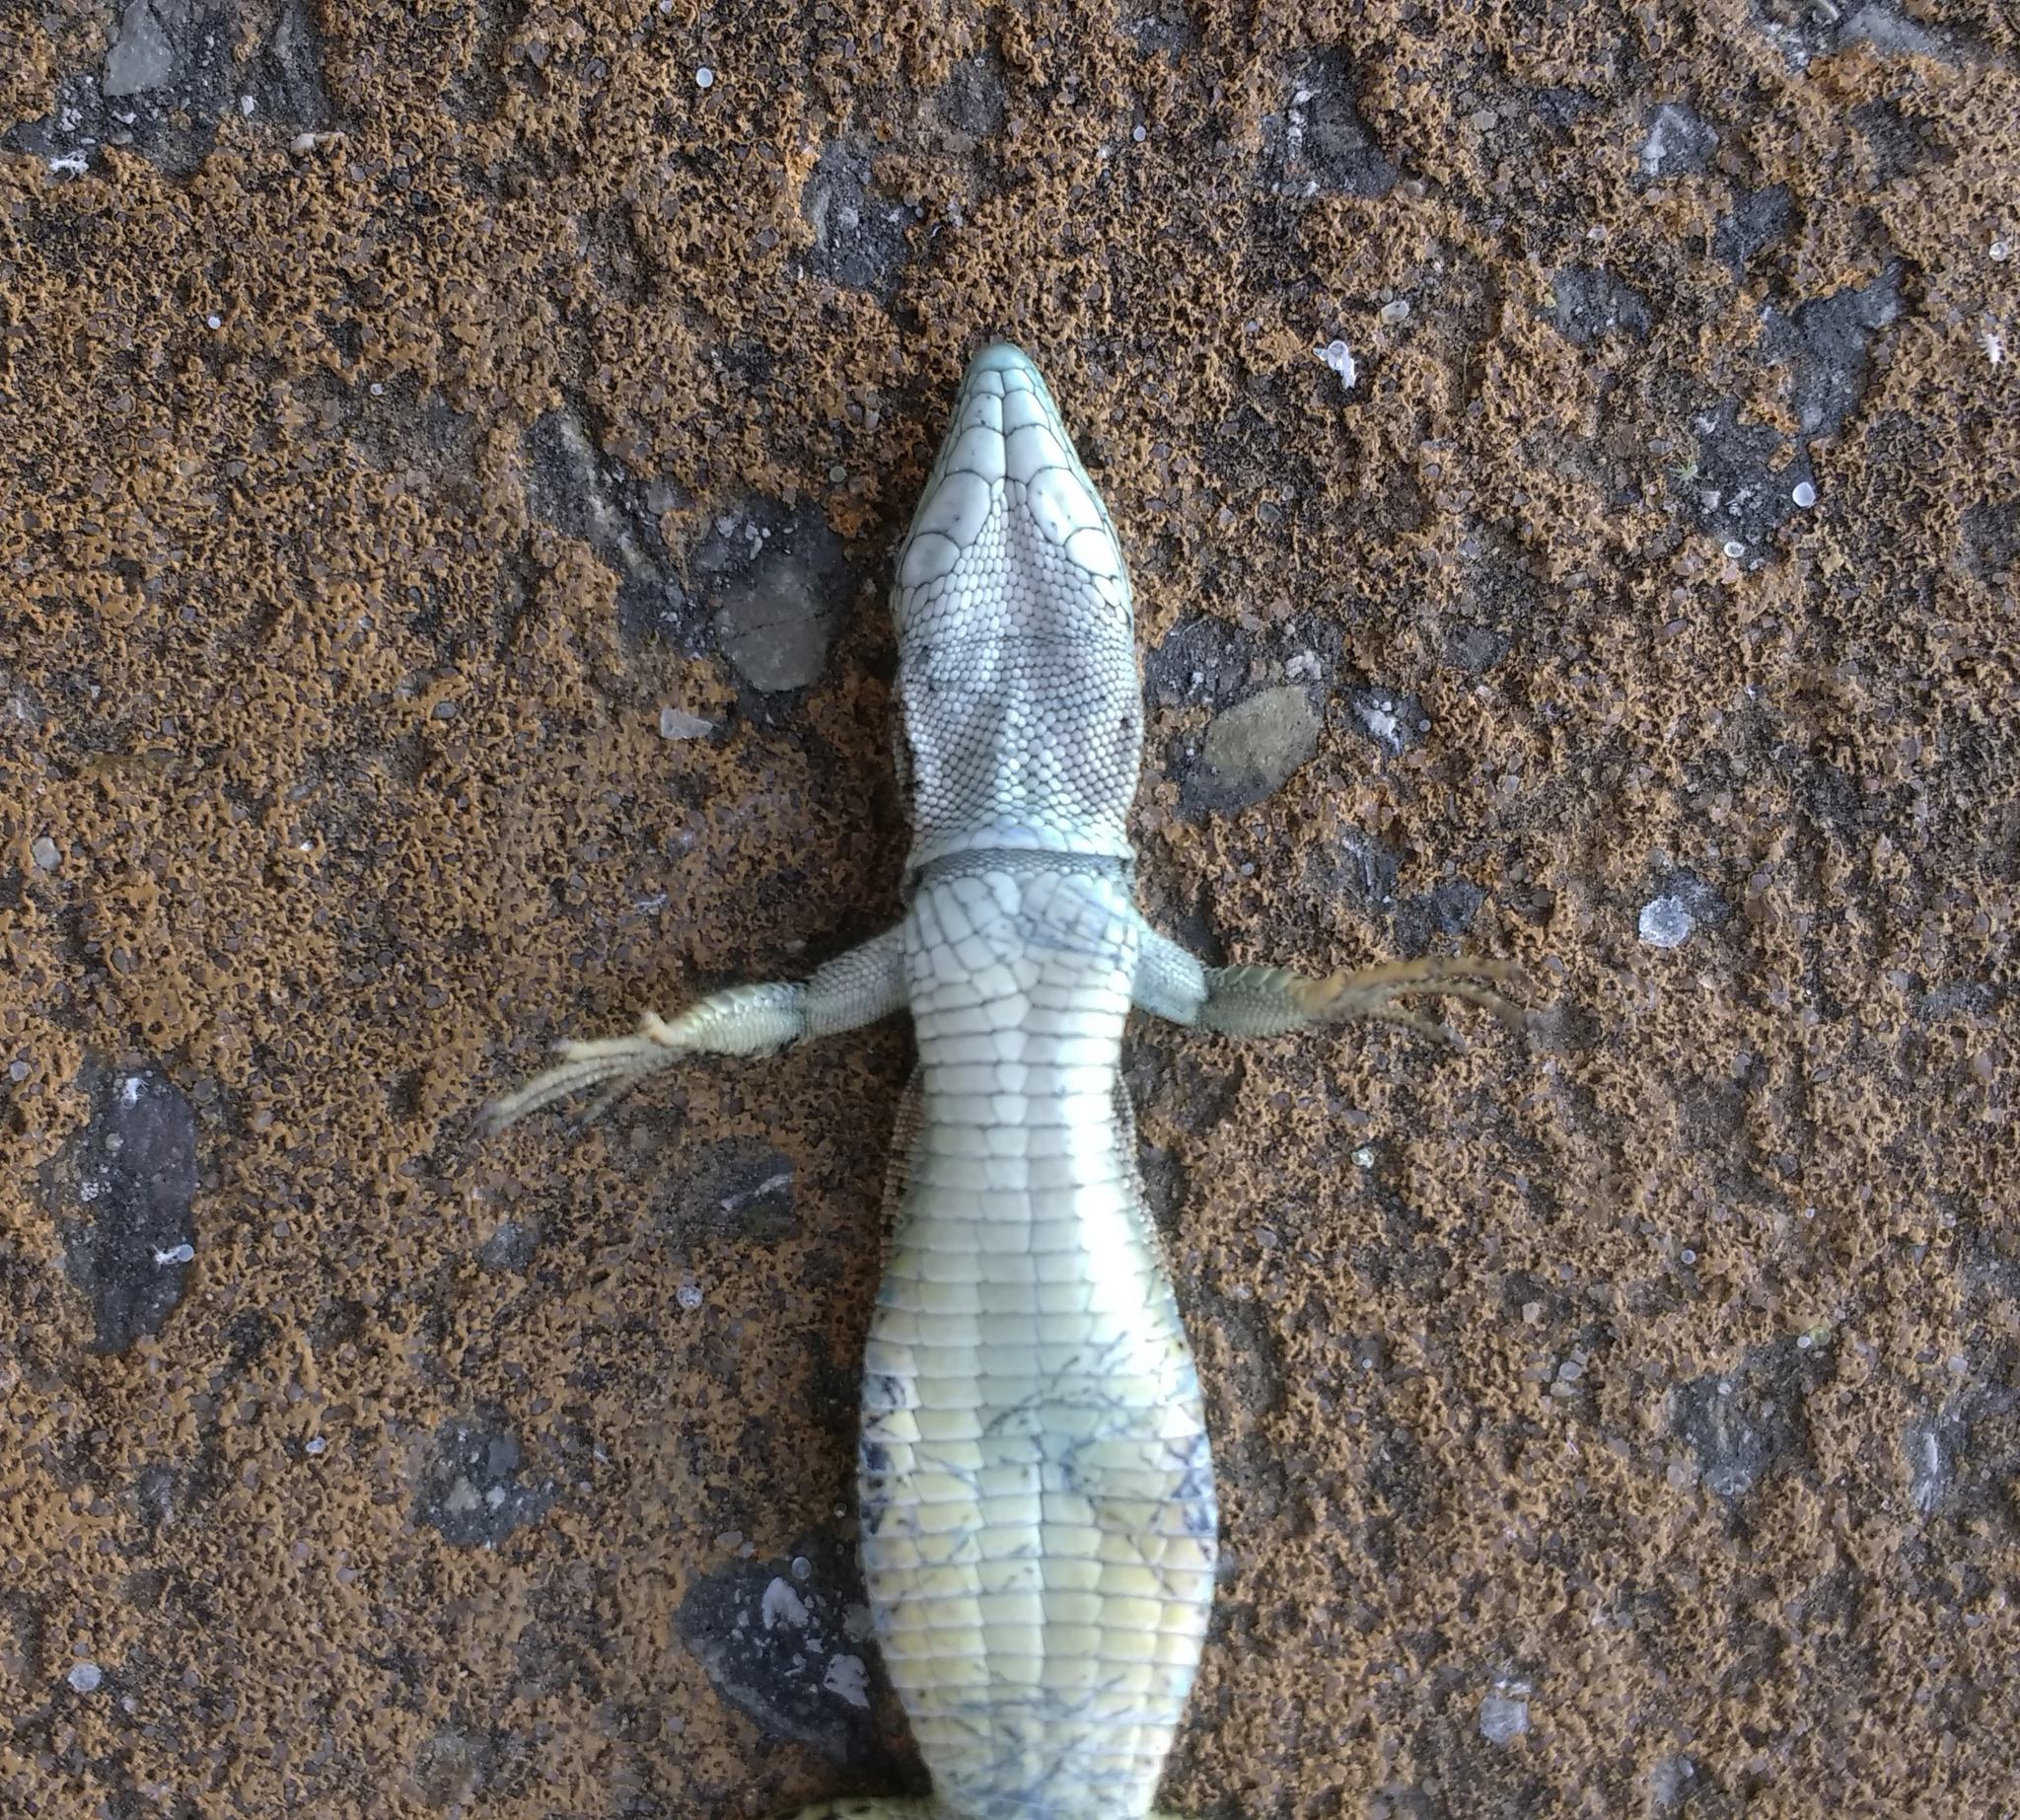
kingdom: Animalia
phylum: Chordata
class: Squamata
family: Lacertidae
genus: Podarcis
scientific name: Podarcis virescens
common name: Geniez’s wall lizard
